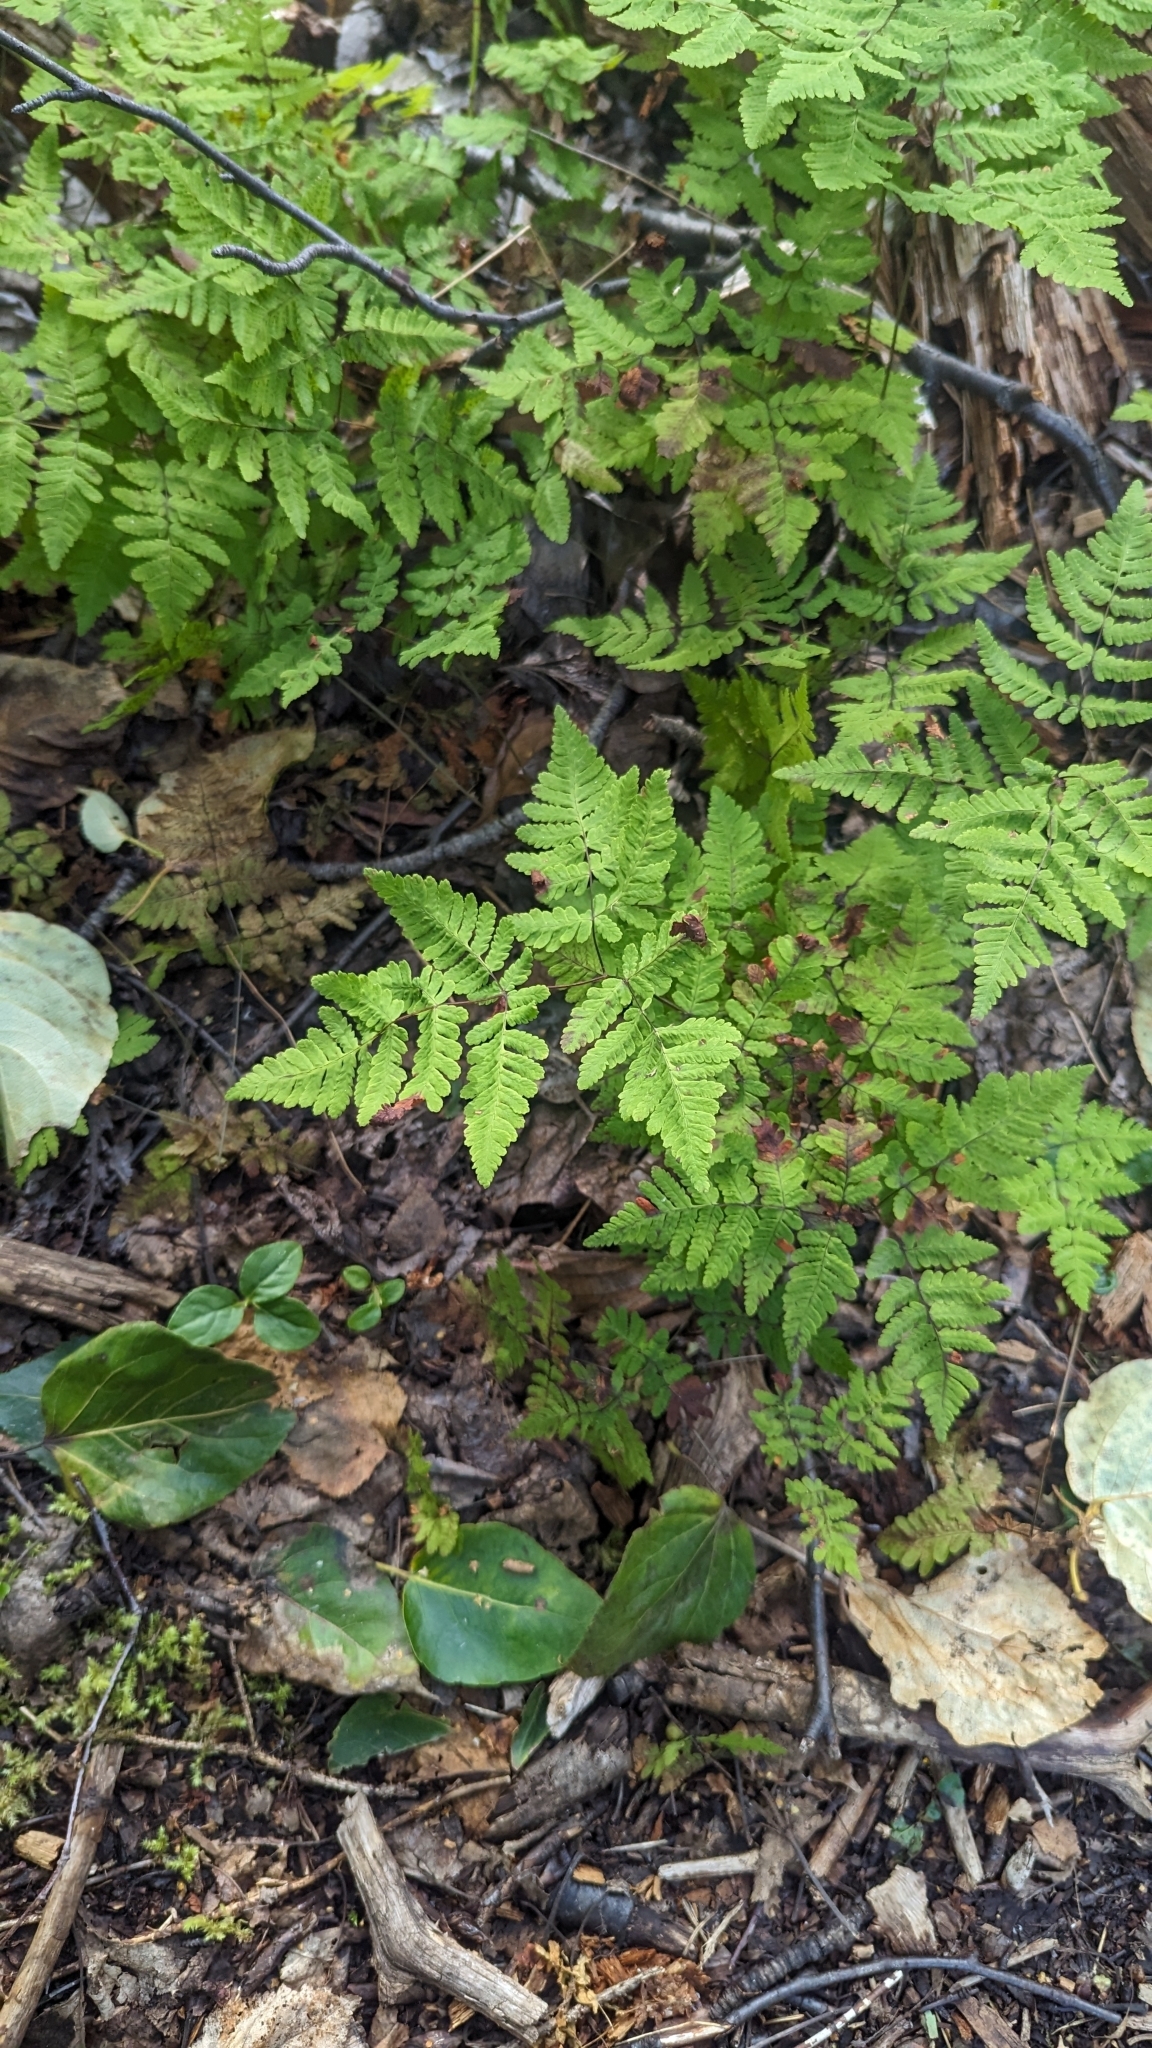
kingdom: Plantae
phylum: Tracheophyta
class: Polypodiopsida
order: Polypodiales
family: Cystopteridaceae
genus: Gymnocarpium
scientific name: Gymnocarpium dryopteris
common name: Oak fern
